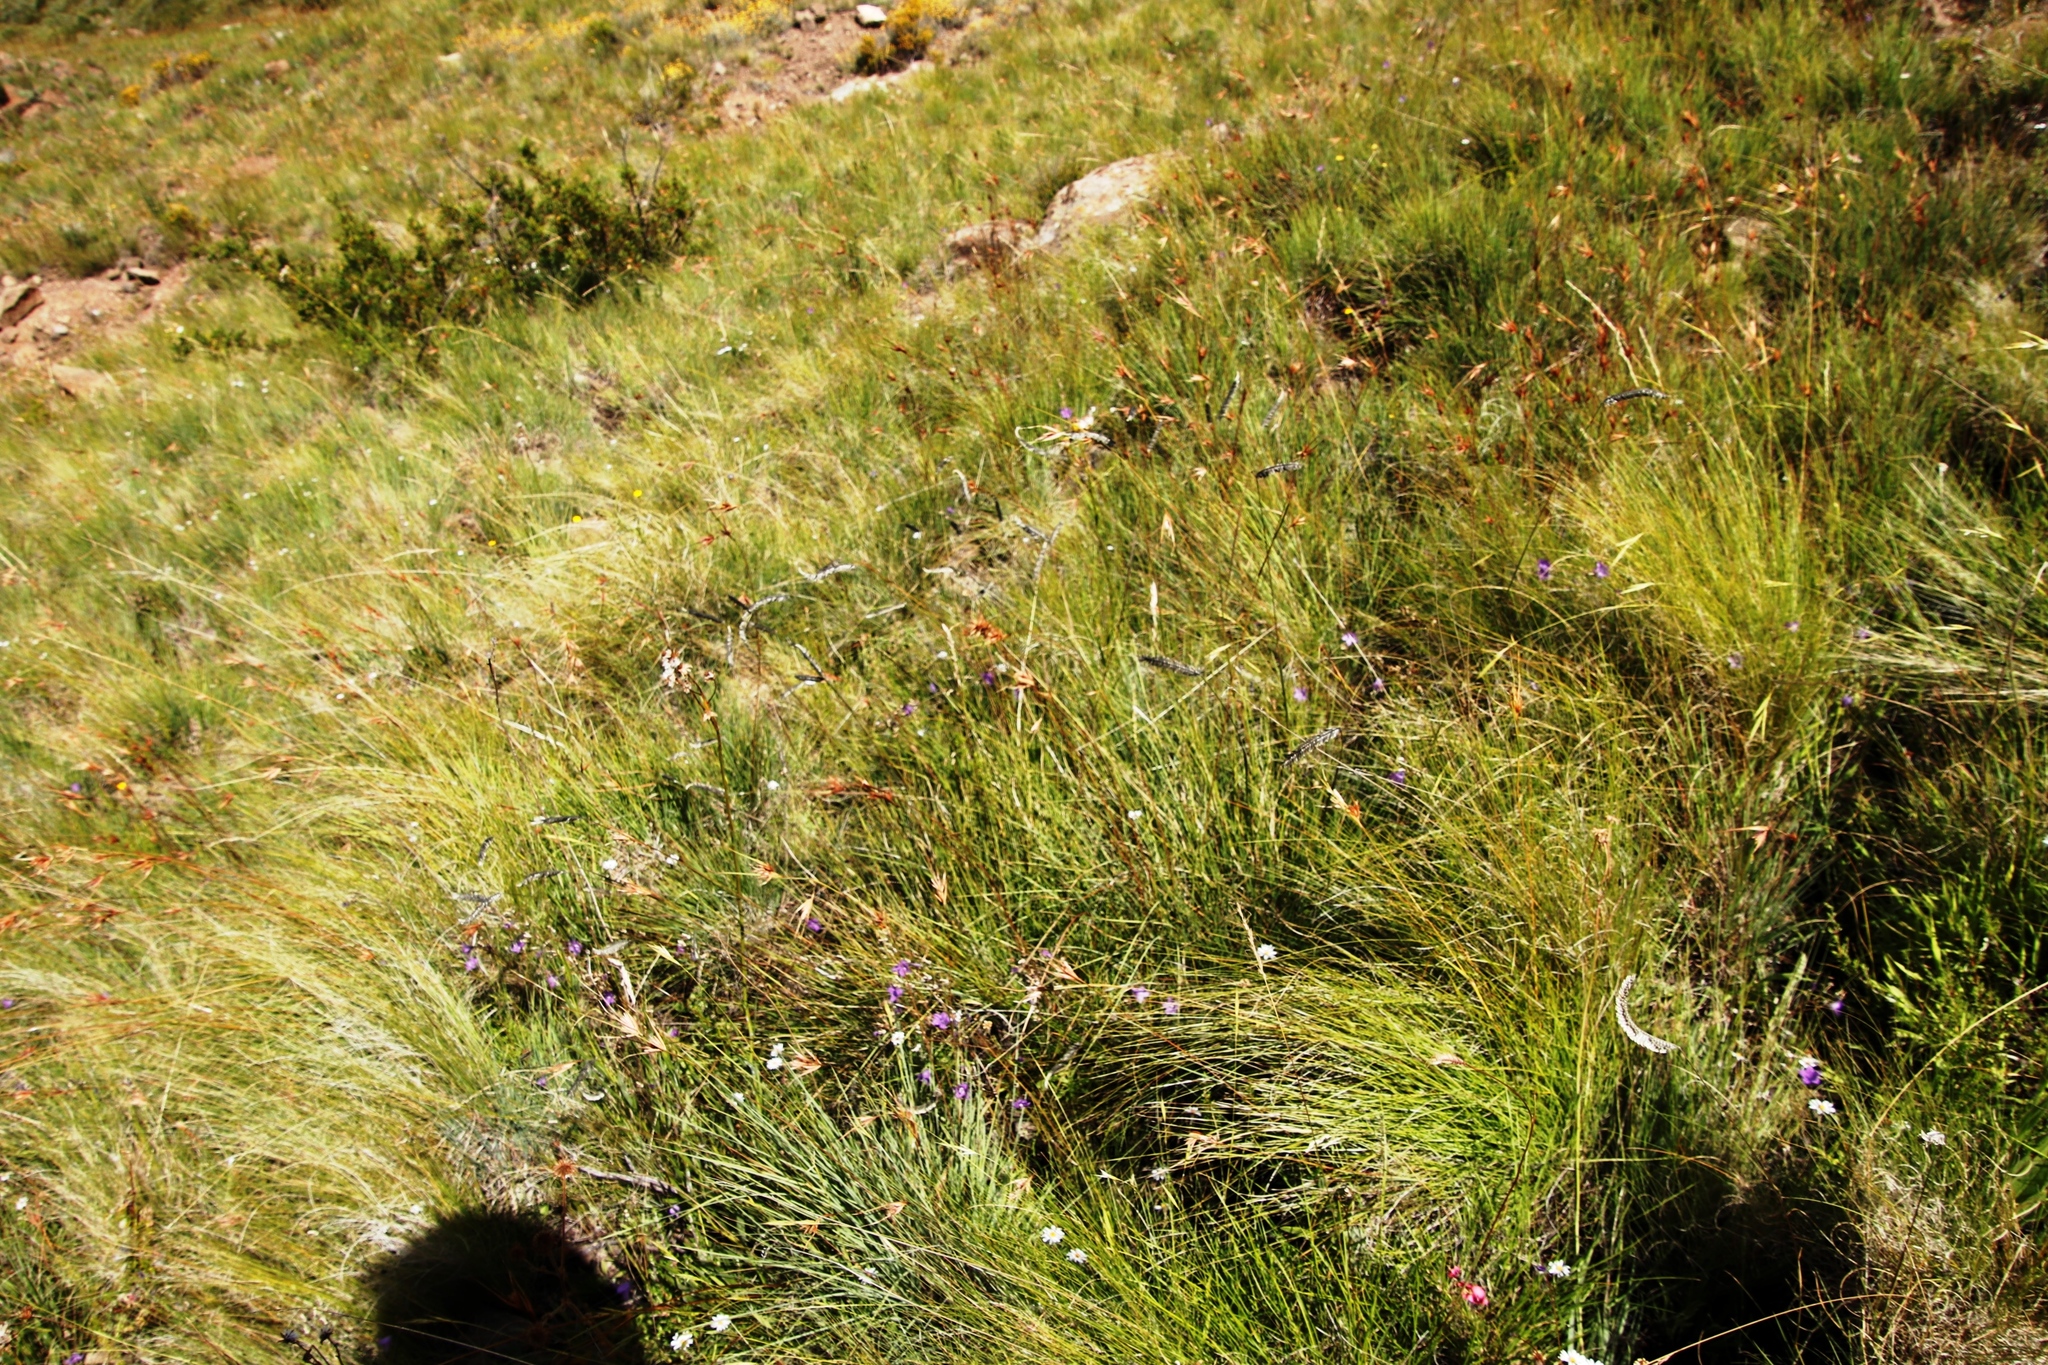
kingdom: Plantae
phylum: Tracheophyta
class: Liliopsida
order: Poales
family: Poaceae
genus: Themeda
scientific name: Themeda triandra
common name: Kangaroo grass
